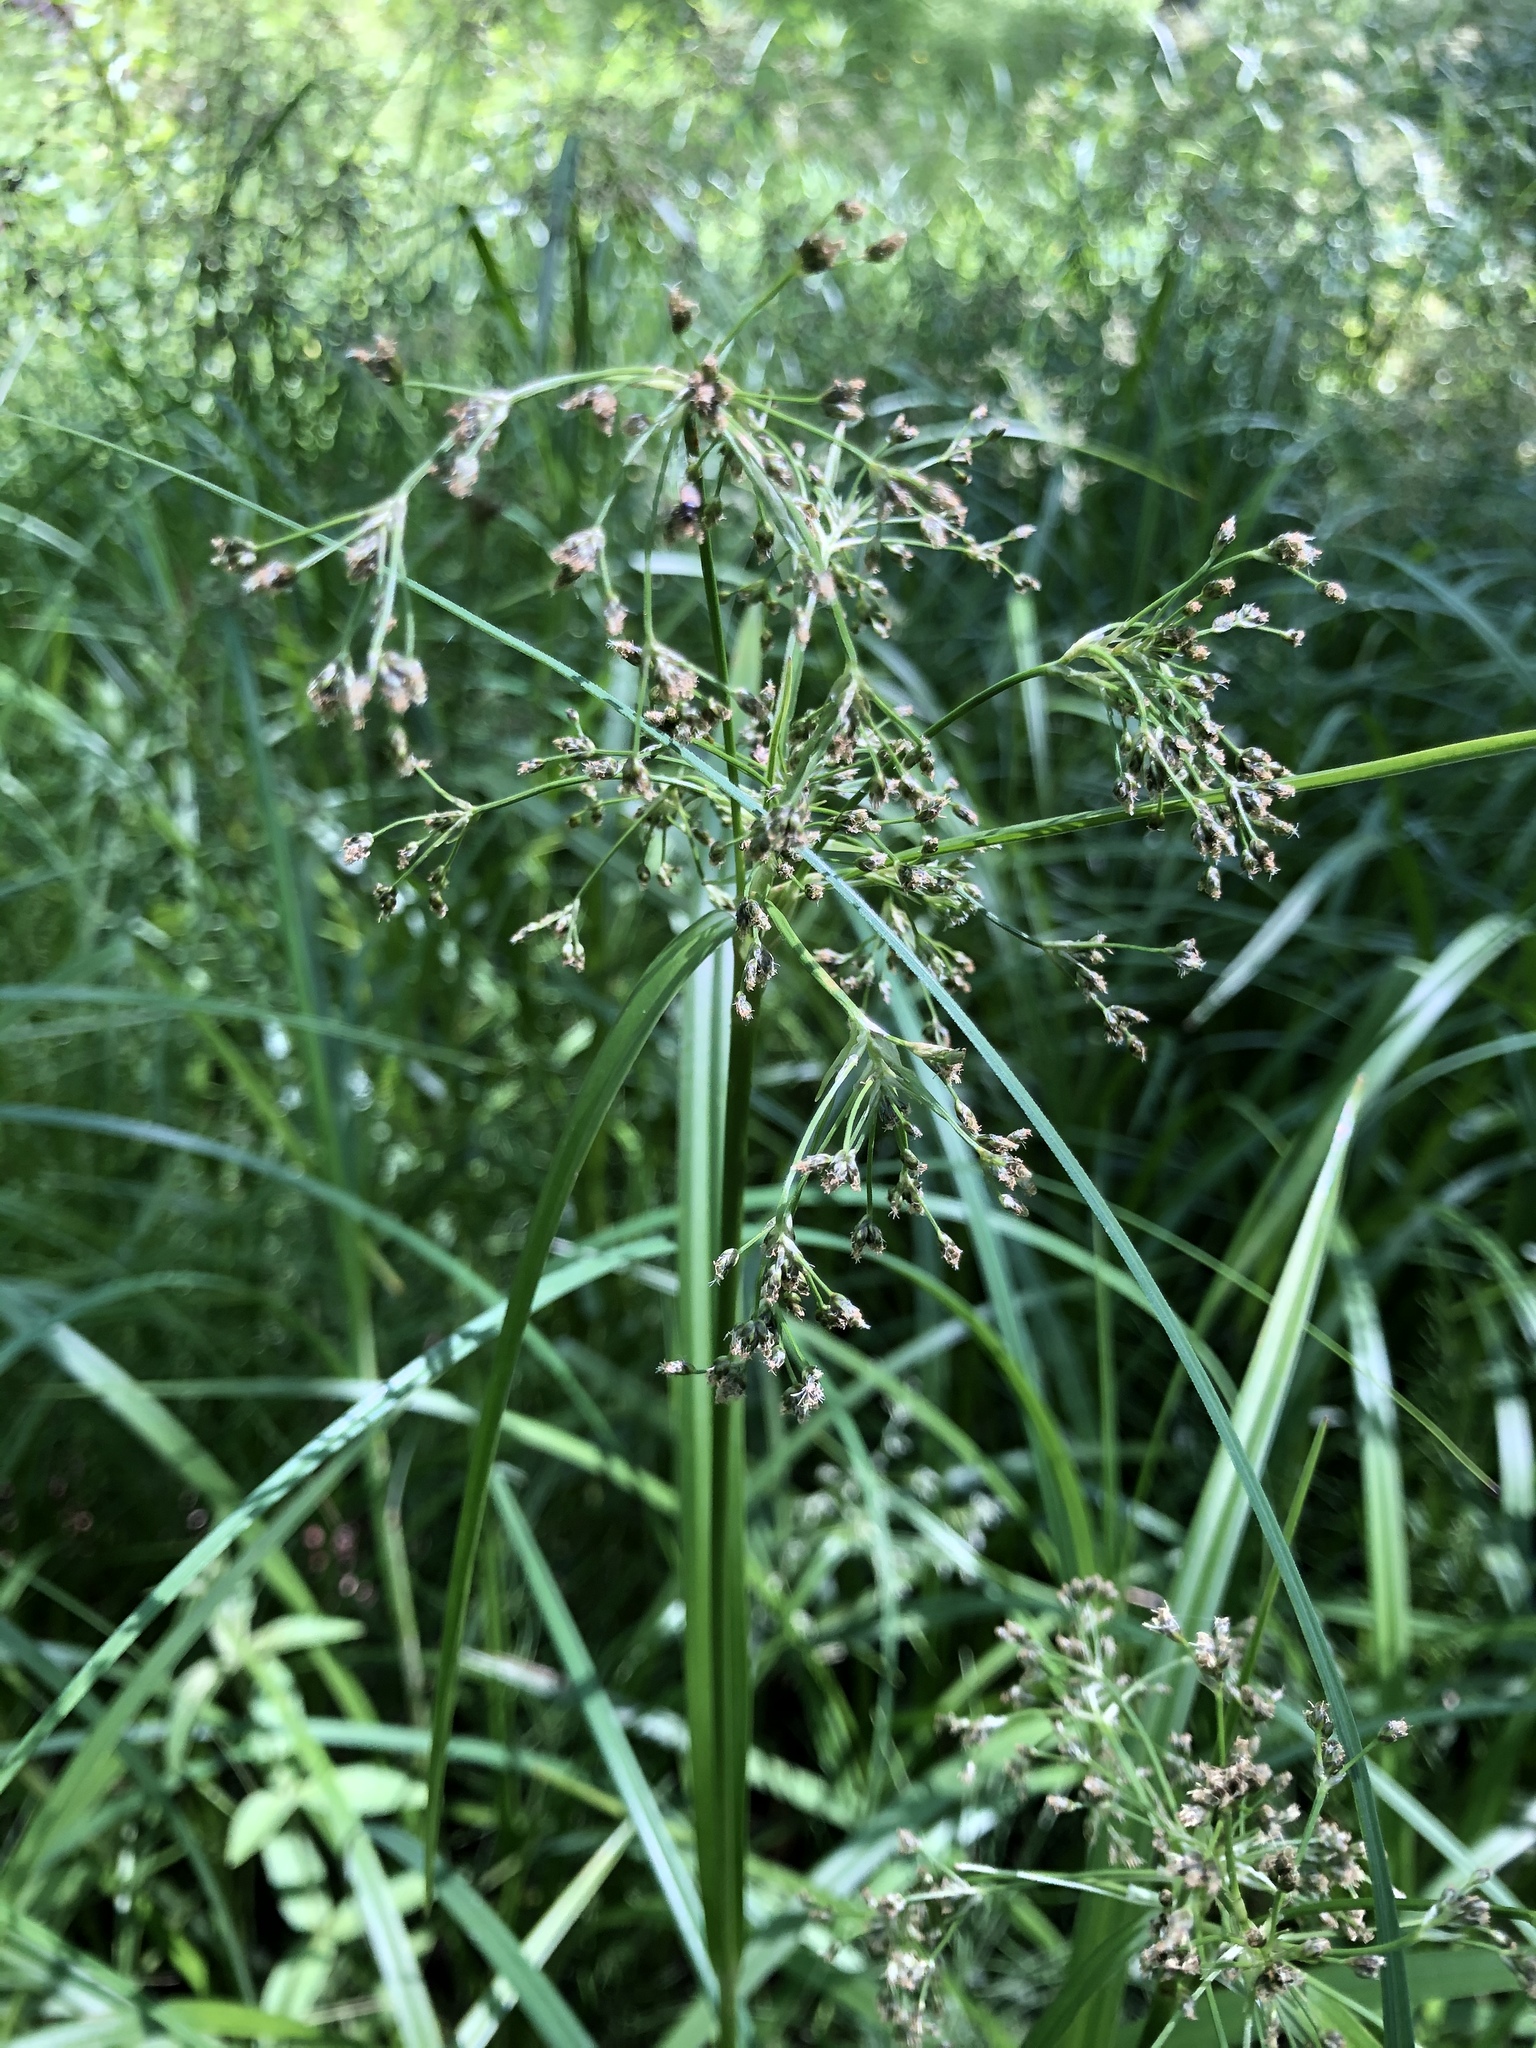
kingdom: Plantae
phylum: Tracheophyta
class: Liliopsida
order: Poales
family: Cyperaceae
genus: Scirpus
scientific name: Scirpus sylvaticus
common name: Wood club-rush
